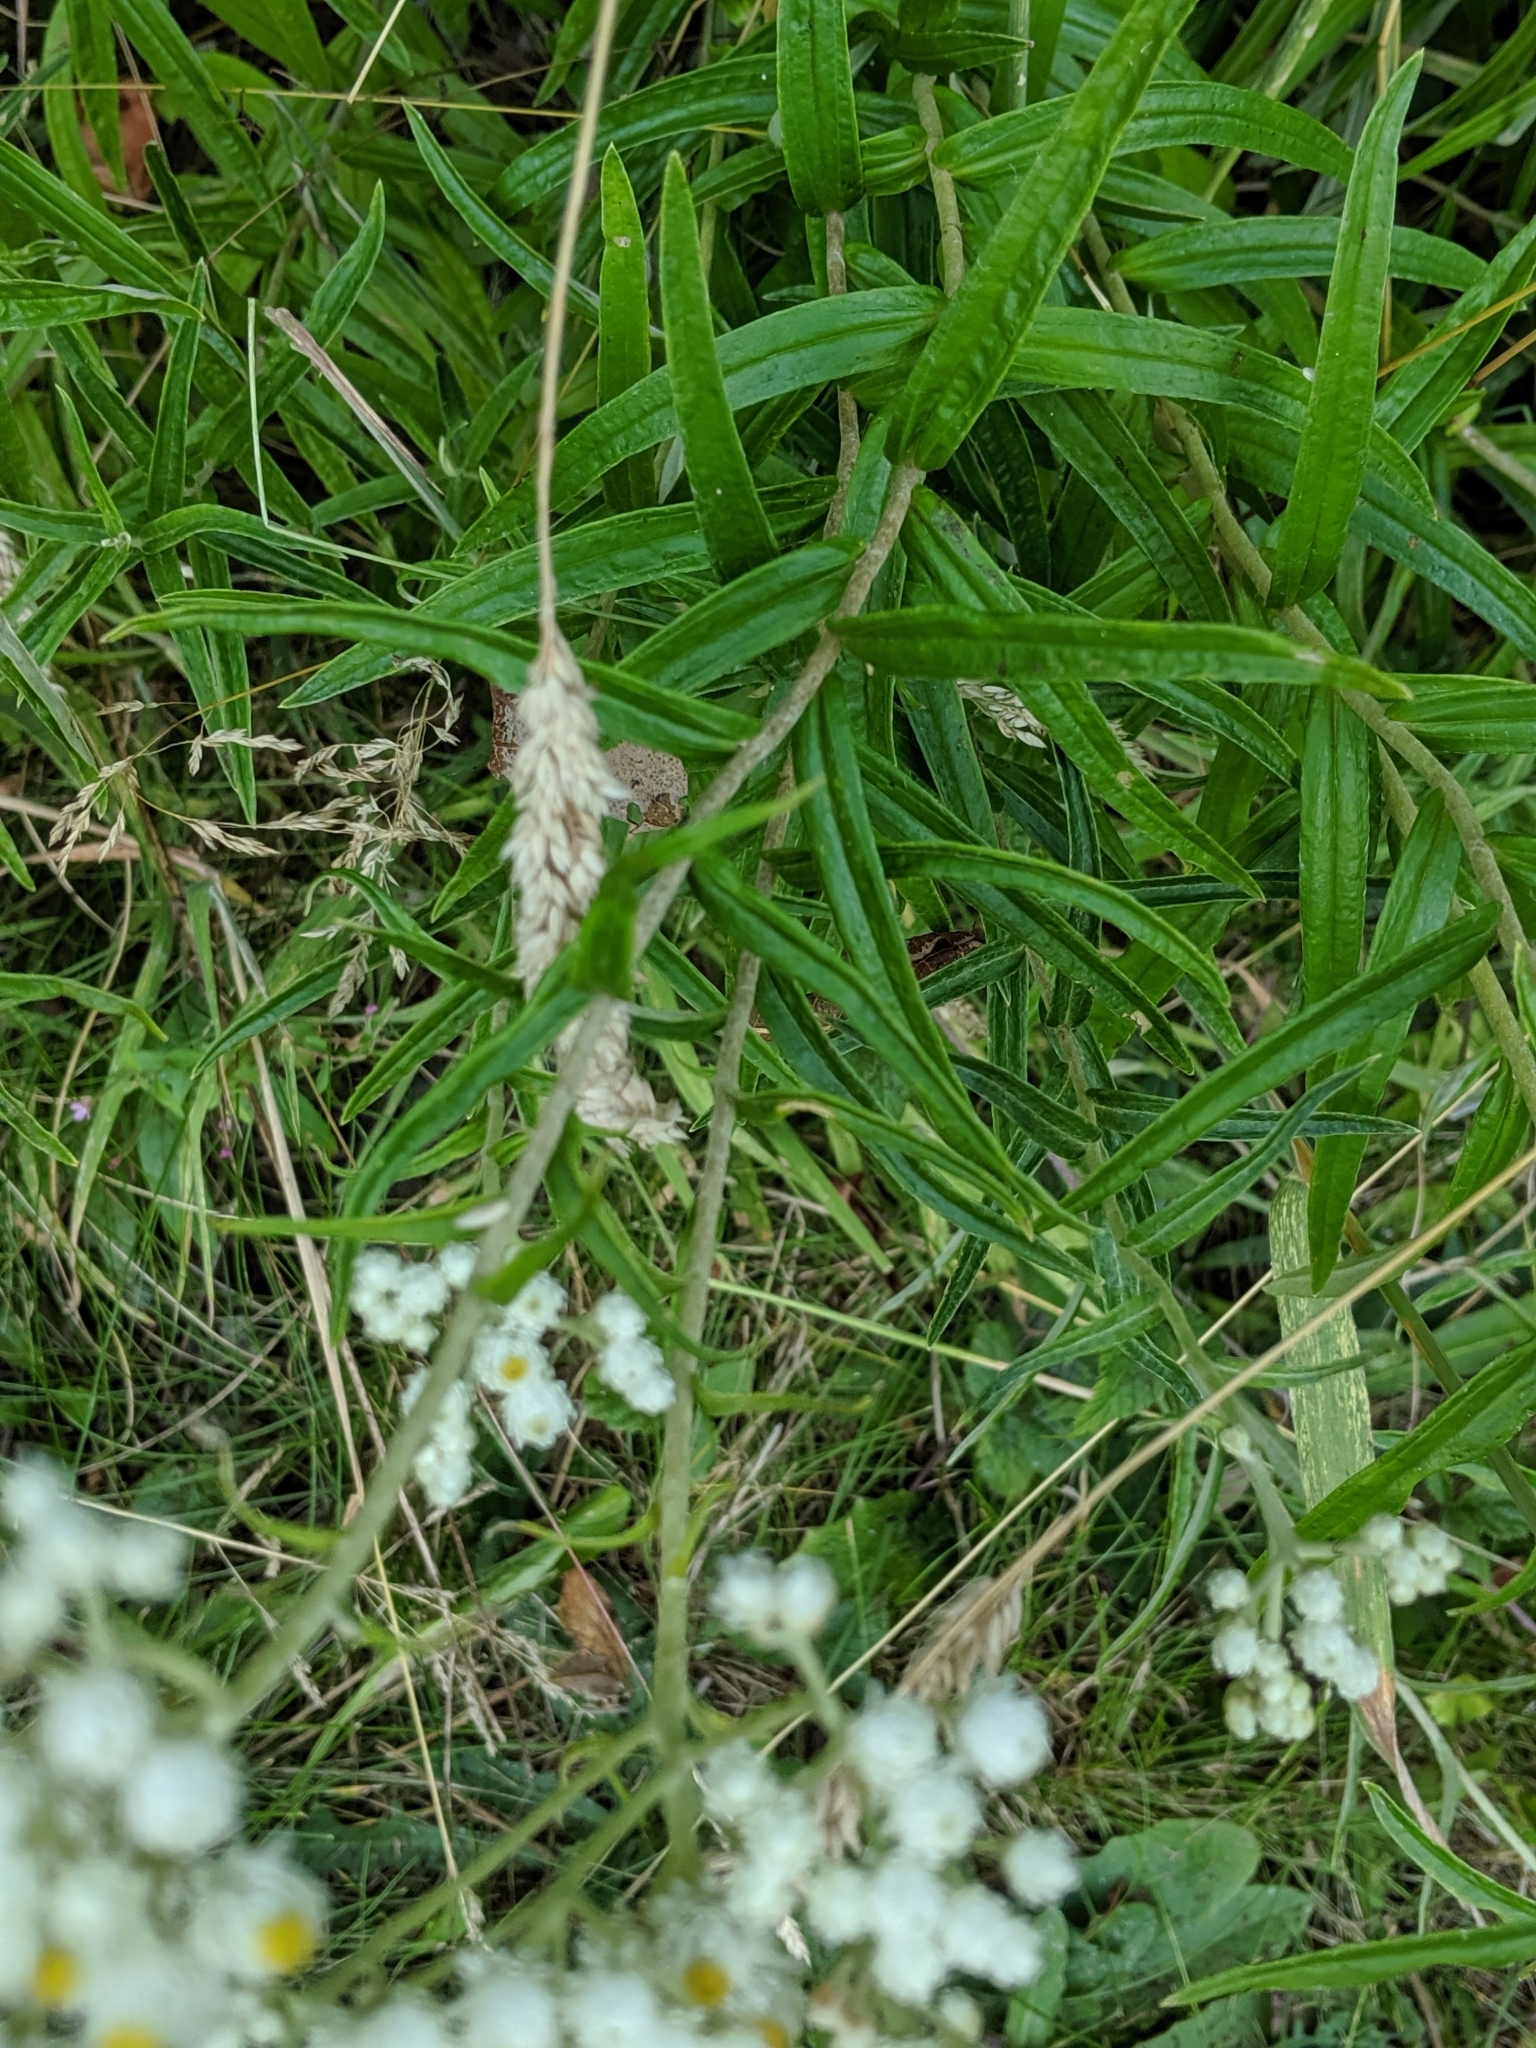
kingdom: Plantae
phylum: Tracheophyta
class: Magnoliopsida
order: Asterales
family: Asteraceae
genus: Anaphalis
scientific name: Anaphalis margaritacea
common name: Pearly everlasting
